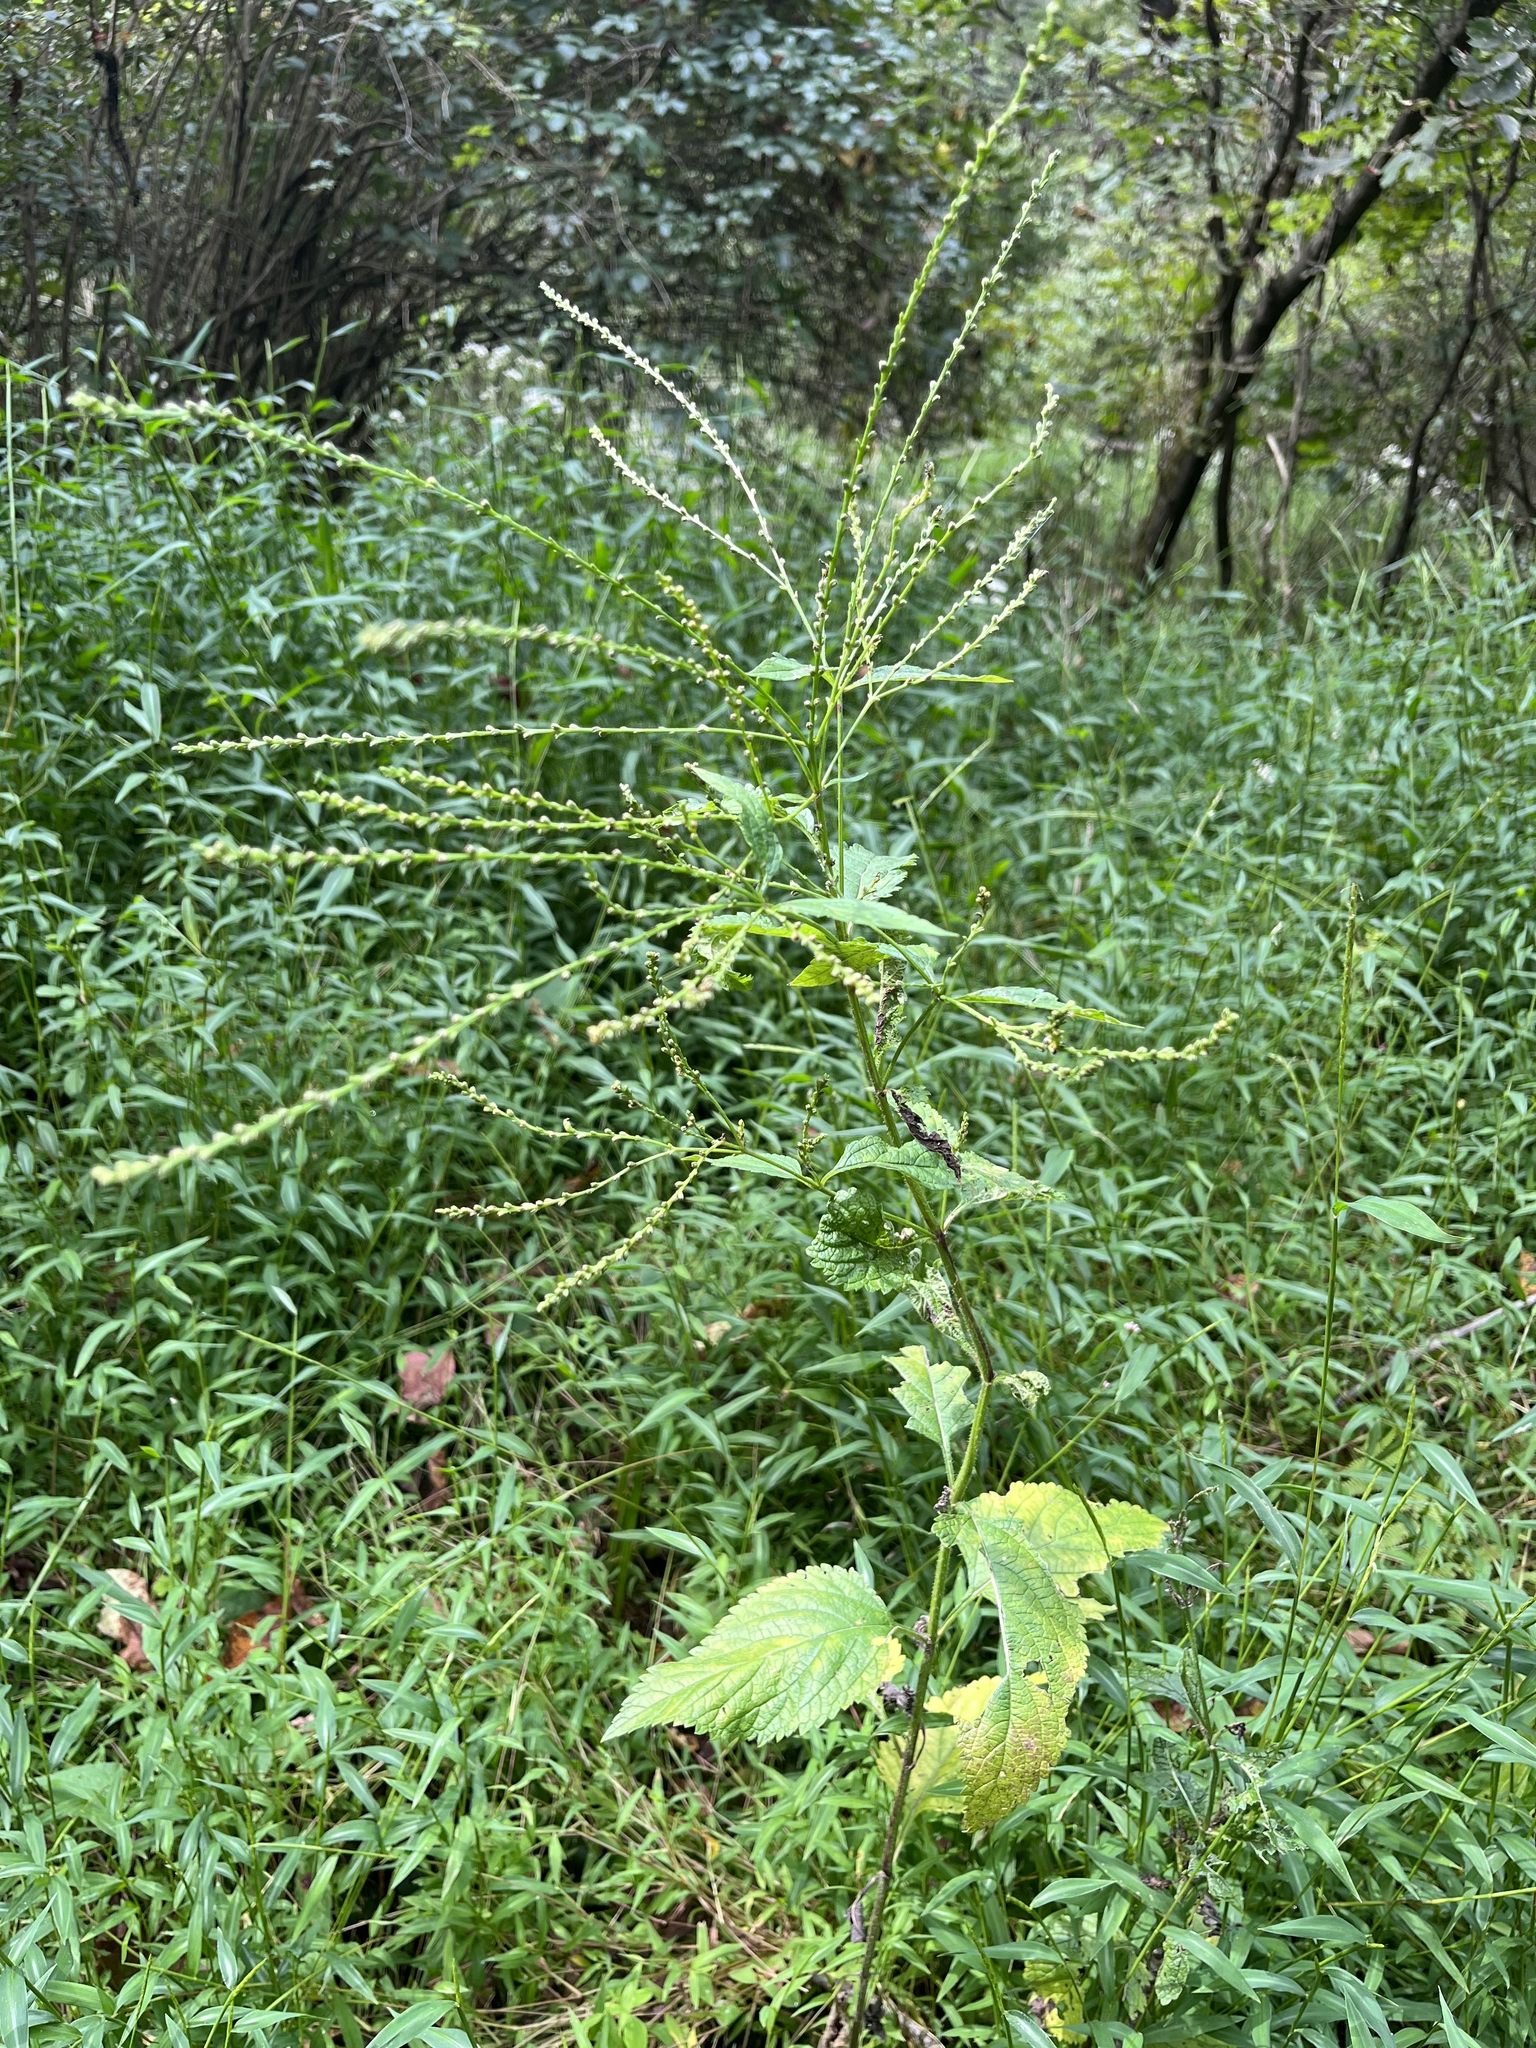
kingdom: Plantae
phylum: Tracheophyta
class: Magnoliopsida
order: Lamiales
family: Verbenaceae
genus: Verbena
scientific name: Verbena urticifolia
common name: Nettle-leaved vervain
